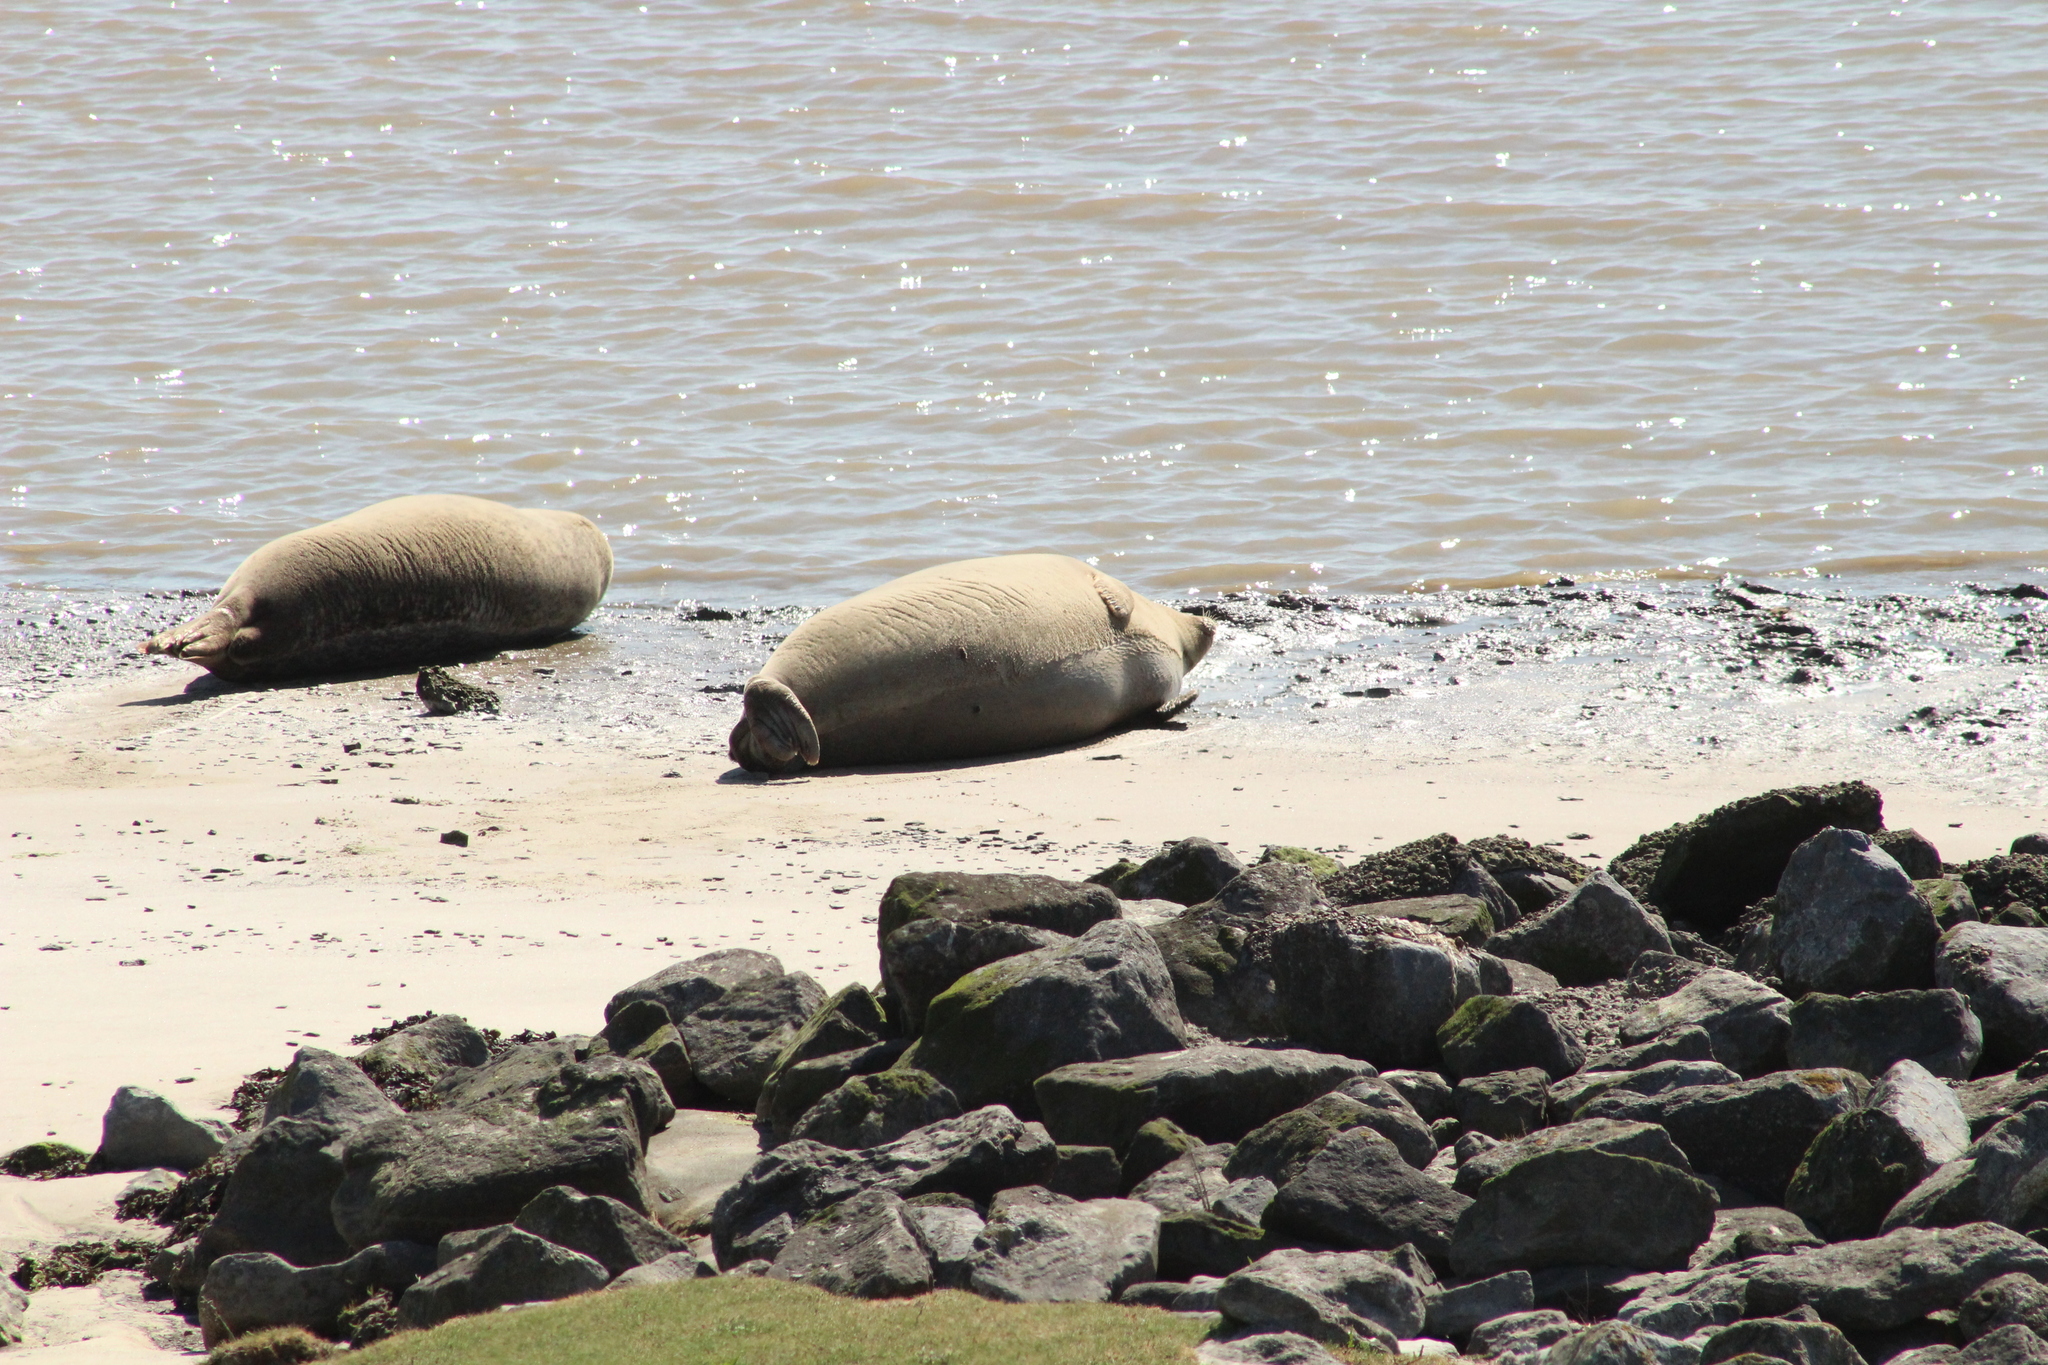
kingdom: Animalia
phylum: Chordata
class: Mammalia
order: Carnivora
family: Phocidae
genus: Phoca
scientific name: Phoca vitulina
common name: Harbor seal
